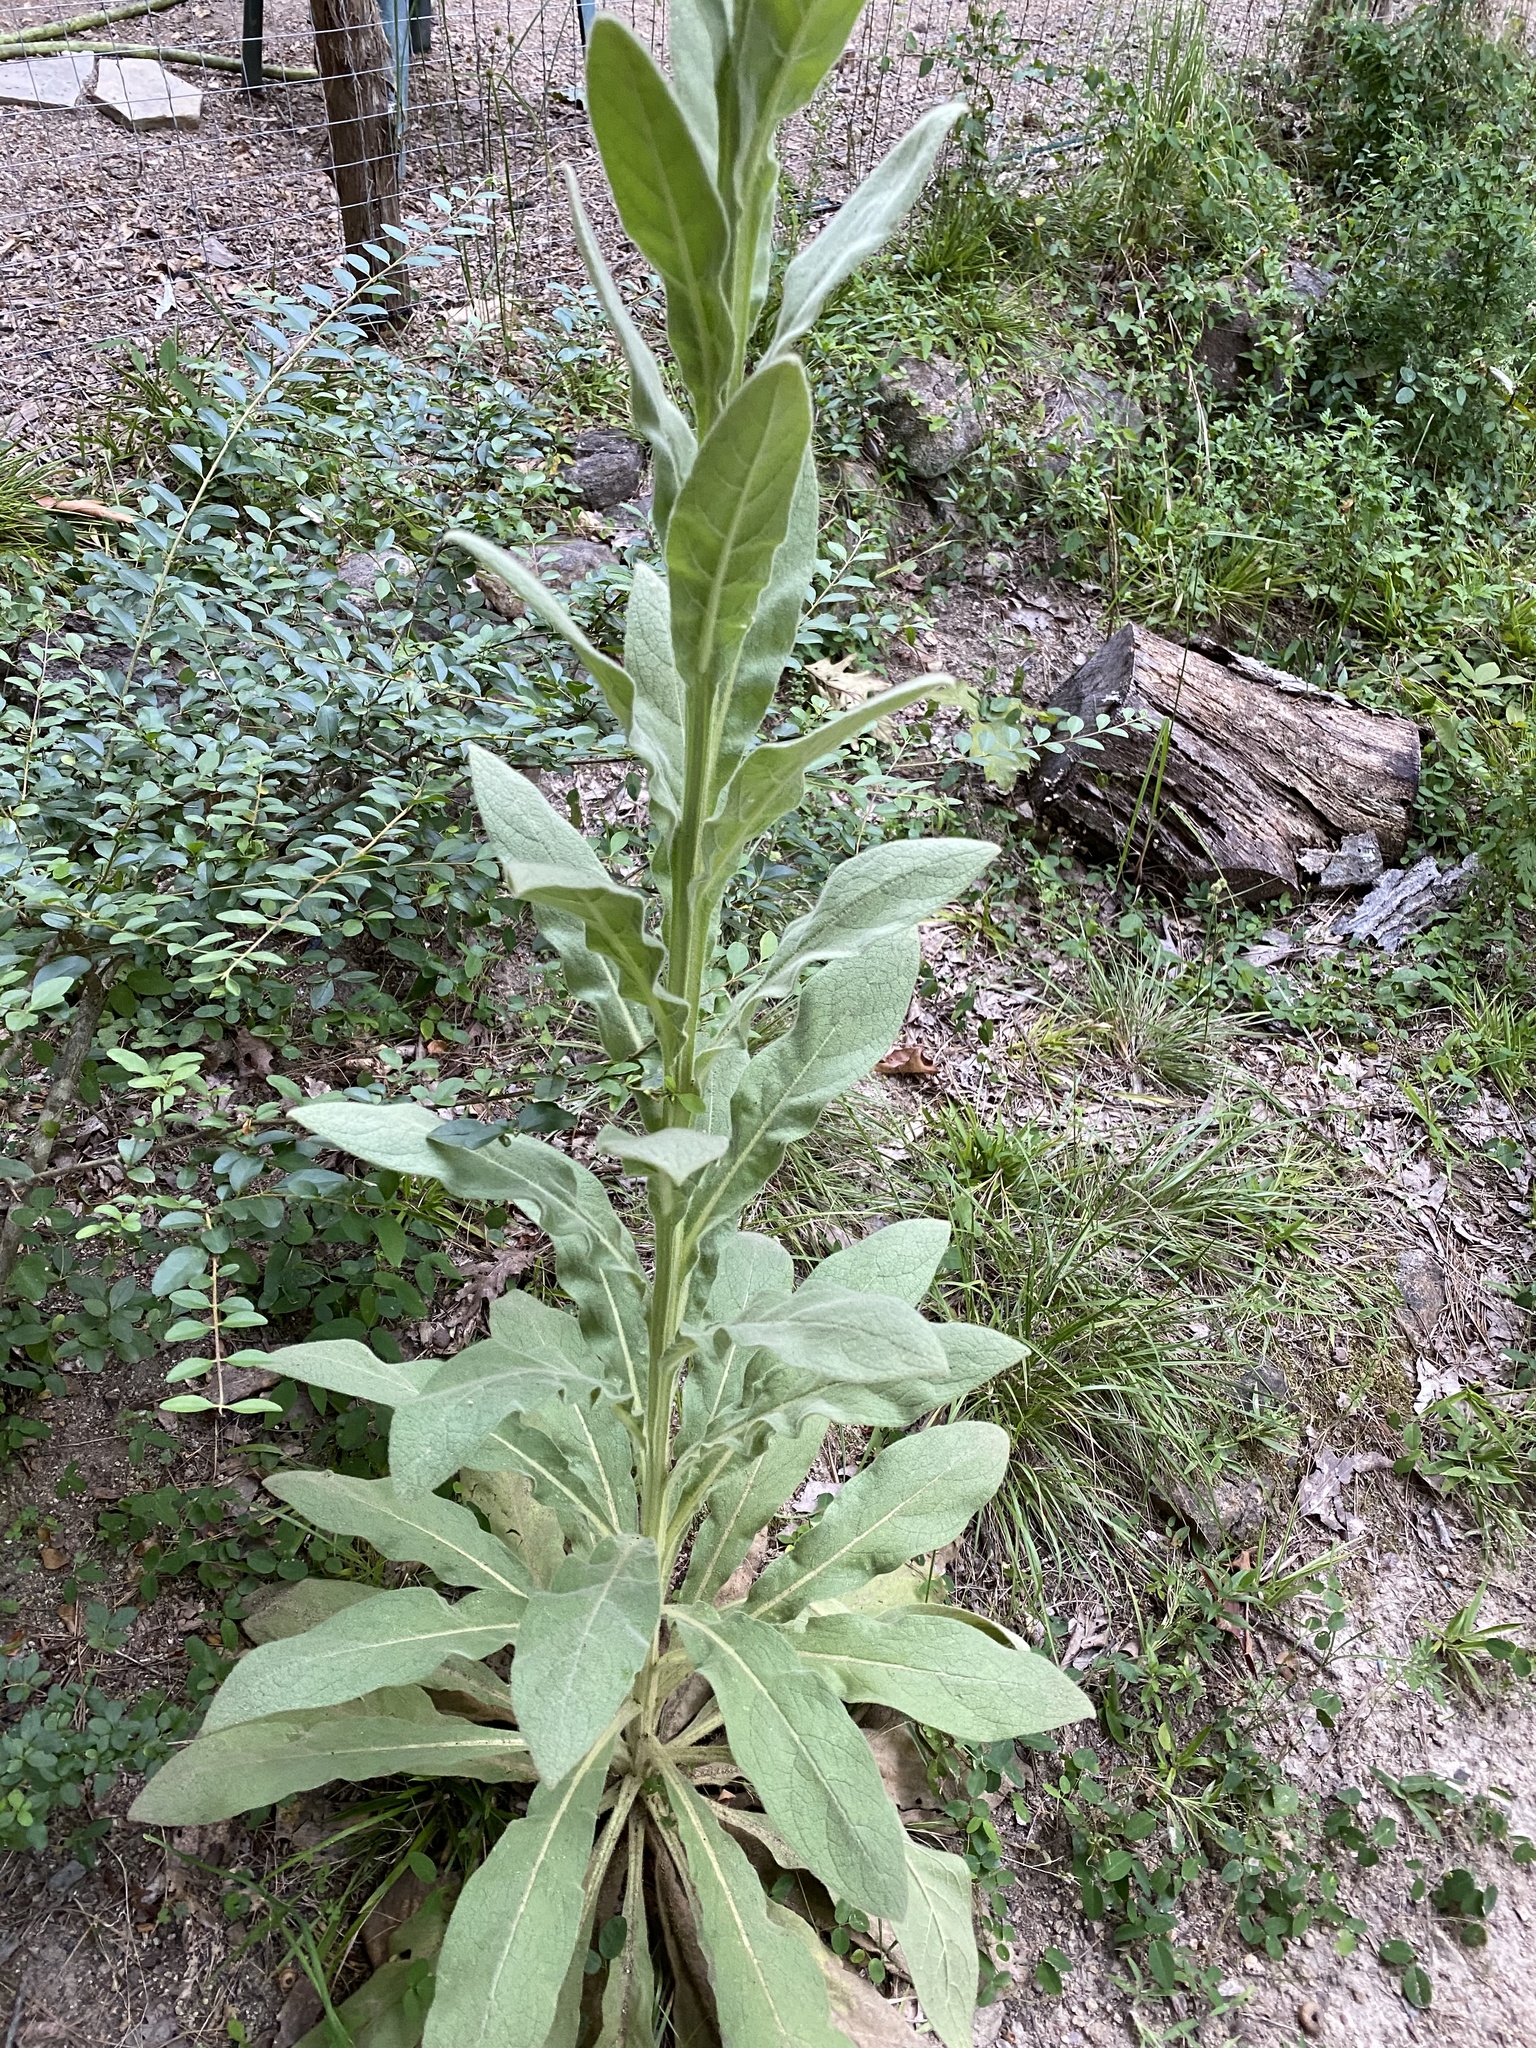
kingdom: Plantae
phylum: Tracheophyta
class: Magnoliopsida
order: Lamiales
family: Scrophulariaceae
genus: Verbascum
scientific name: Verbascum thapsus
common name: Common mullein
